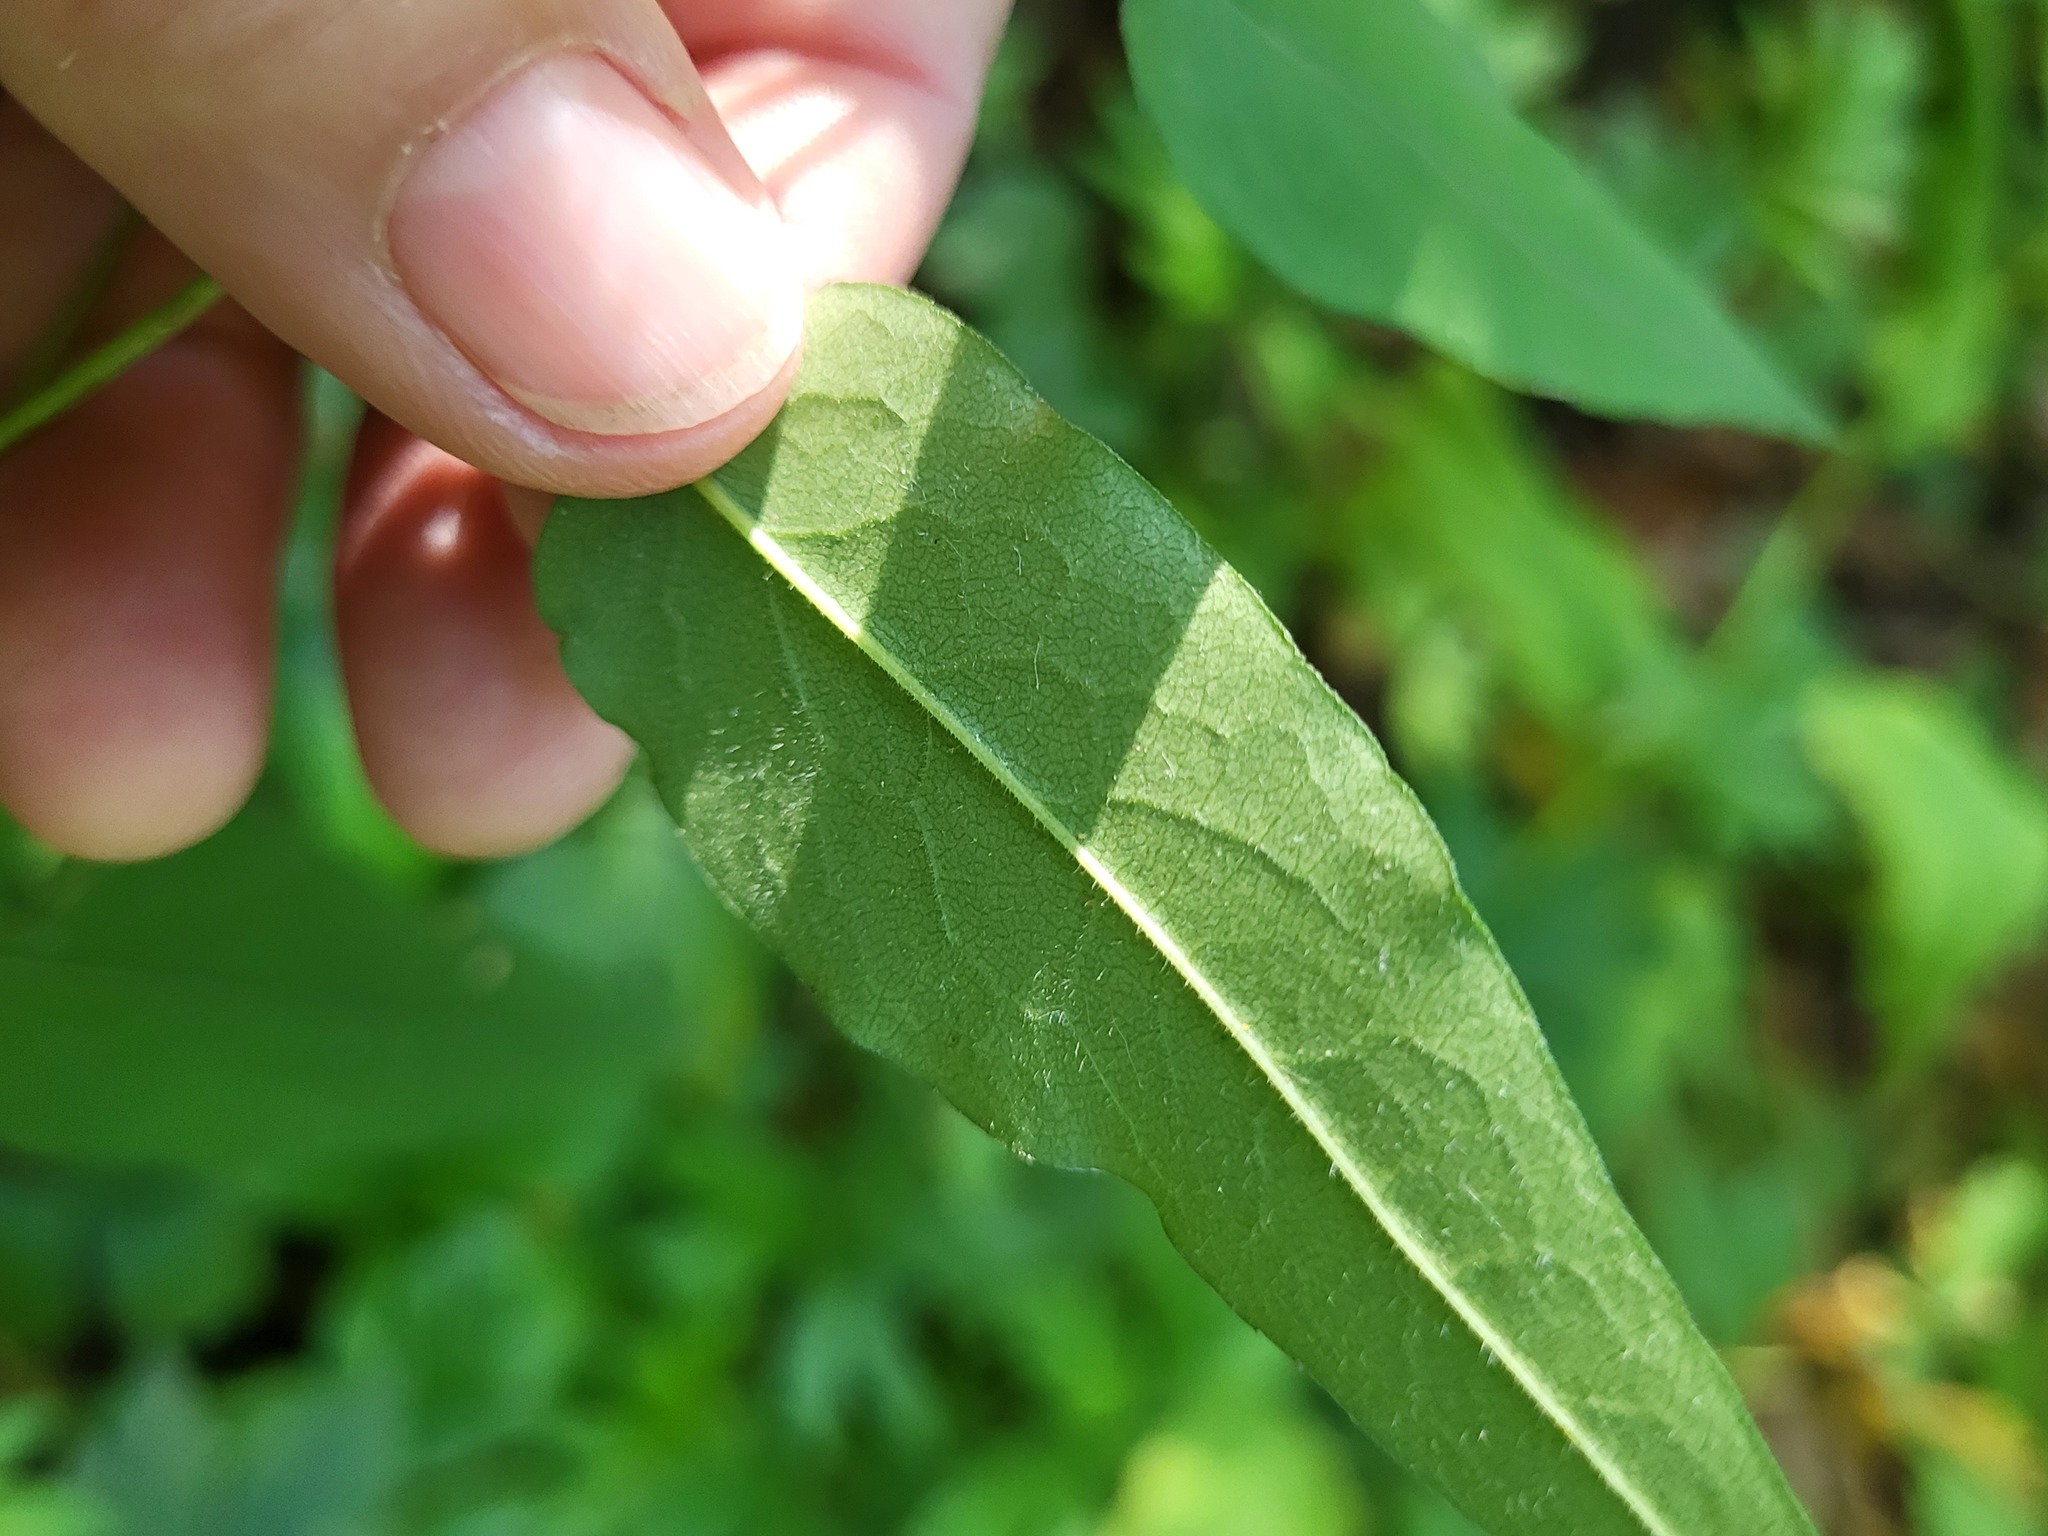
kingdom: Plantae
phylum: Tracheophyta
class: Magnoliopsida
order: Asterales
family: Asteraceae
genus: Symphyotrichum
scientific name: Symphyotrichum shortii
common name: Short's aster
